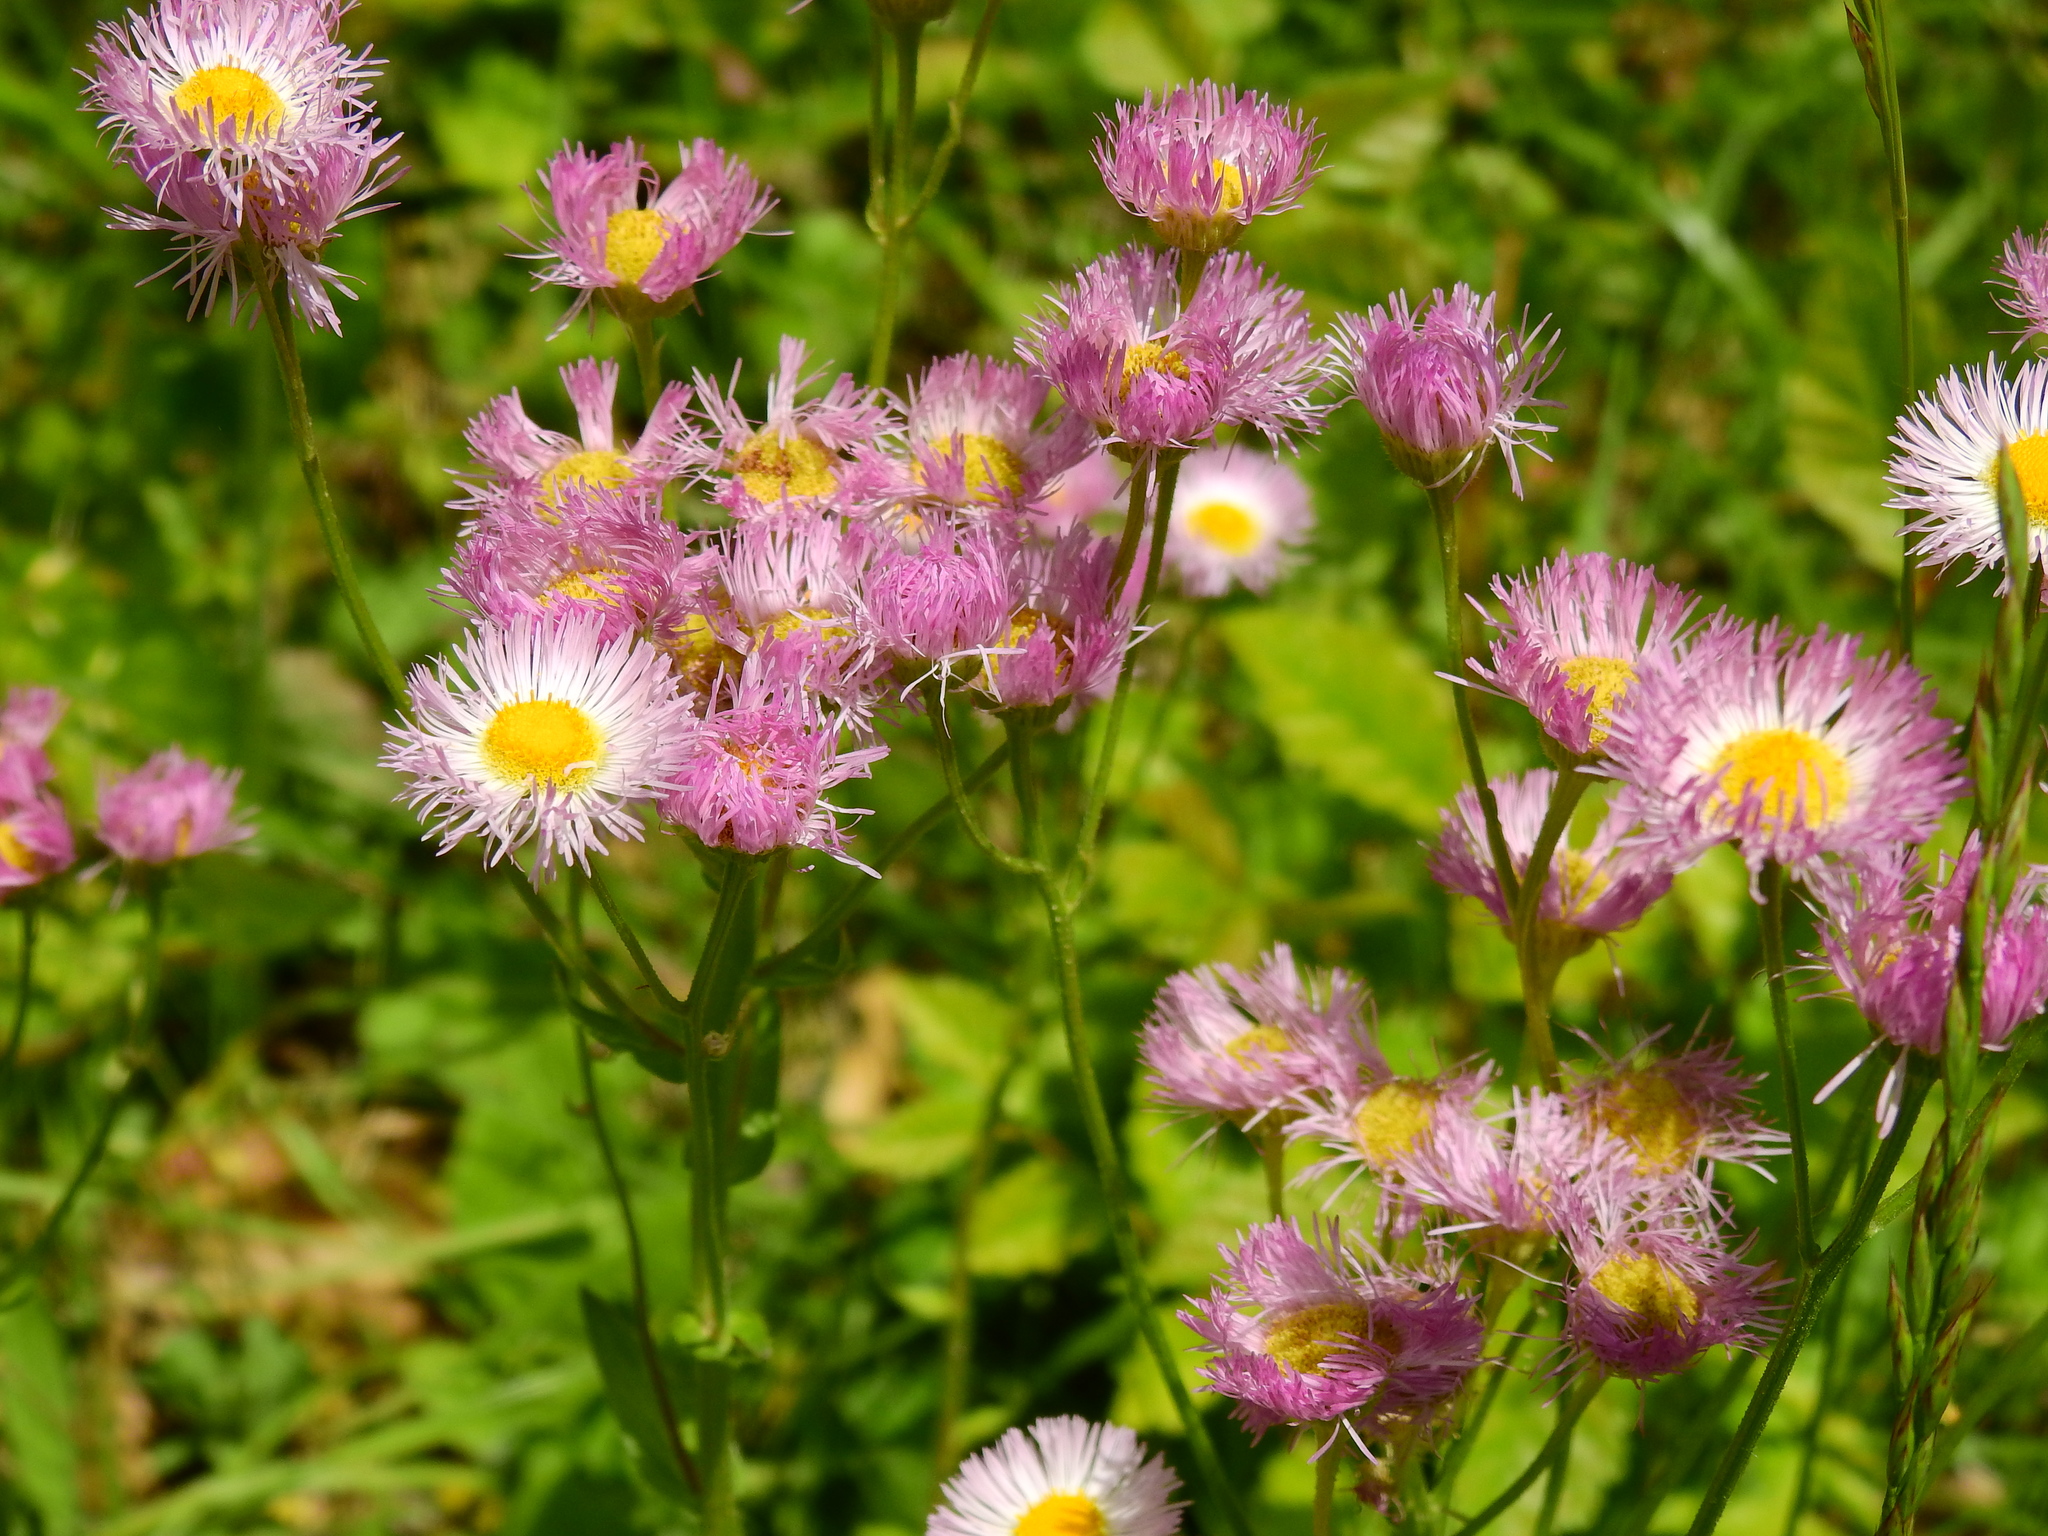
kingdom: Plantae
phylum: Tracheophyta
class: Magnoliopsida
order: Asterales
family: Asteraceae
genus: Erigeron
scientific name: Erigeron philadelphicus
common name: Robin's-plantain
